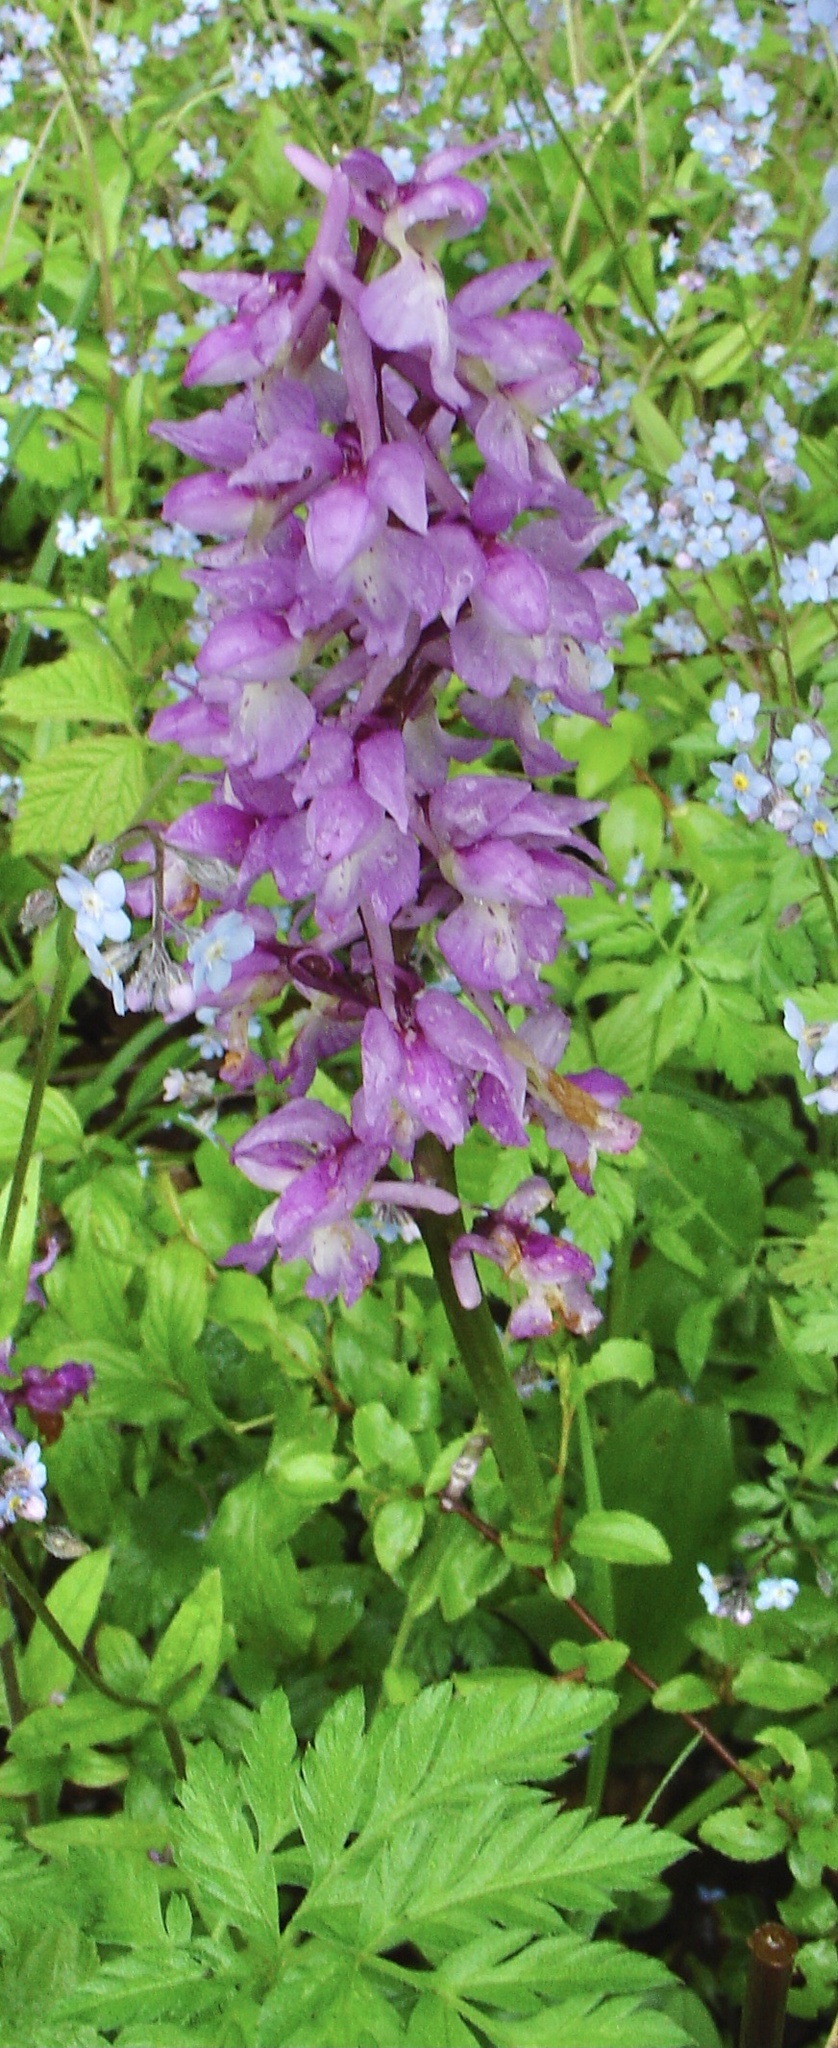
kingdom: Plantae
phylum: Tracheophyta
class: Liliopsida
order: Asparagales
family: Orchidaceae
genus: Orchis
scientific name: Orchis mascula
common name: Early-purple orchid
